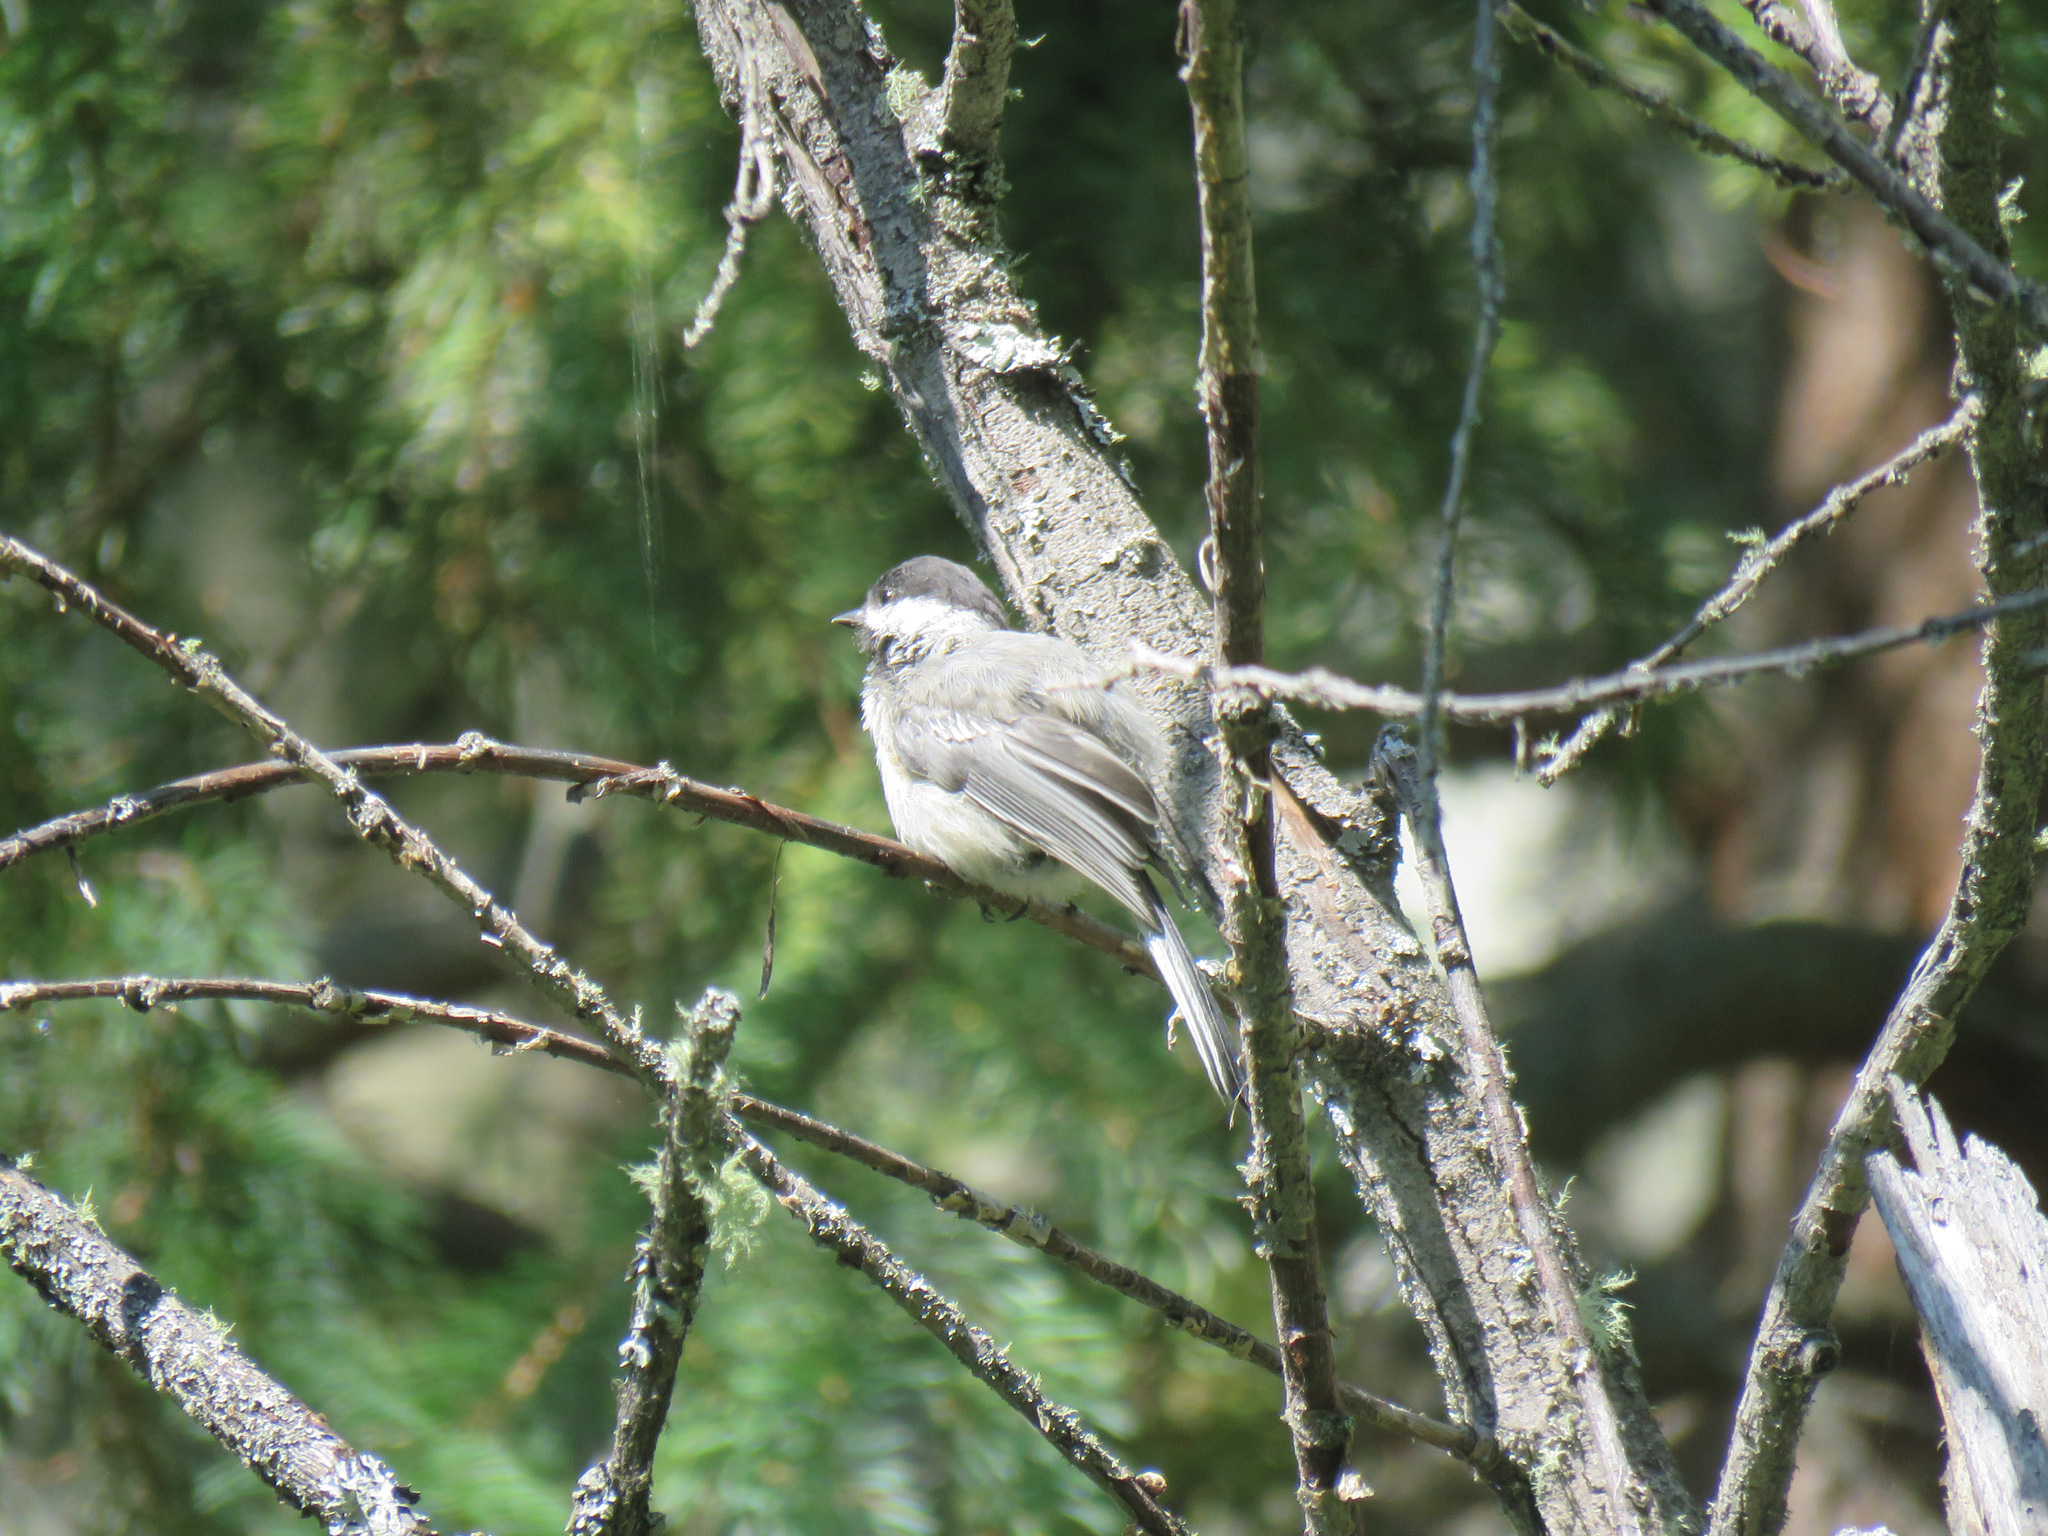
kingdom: Animalia
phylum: Chordata
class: Aves
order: Passeriformes
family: Paridae
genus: Poecile
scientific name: Poecile atricapillus
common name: Black-capped chickadee
